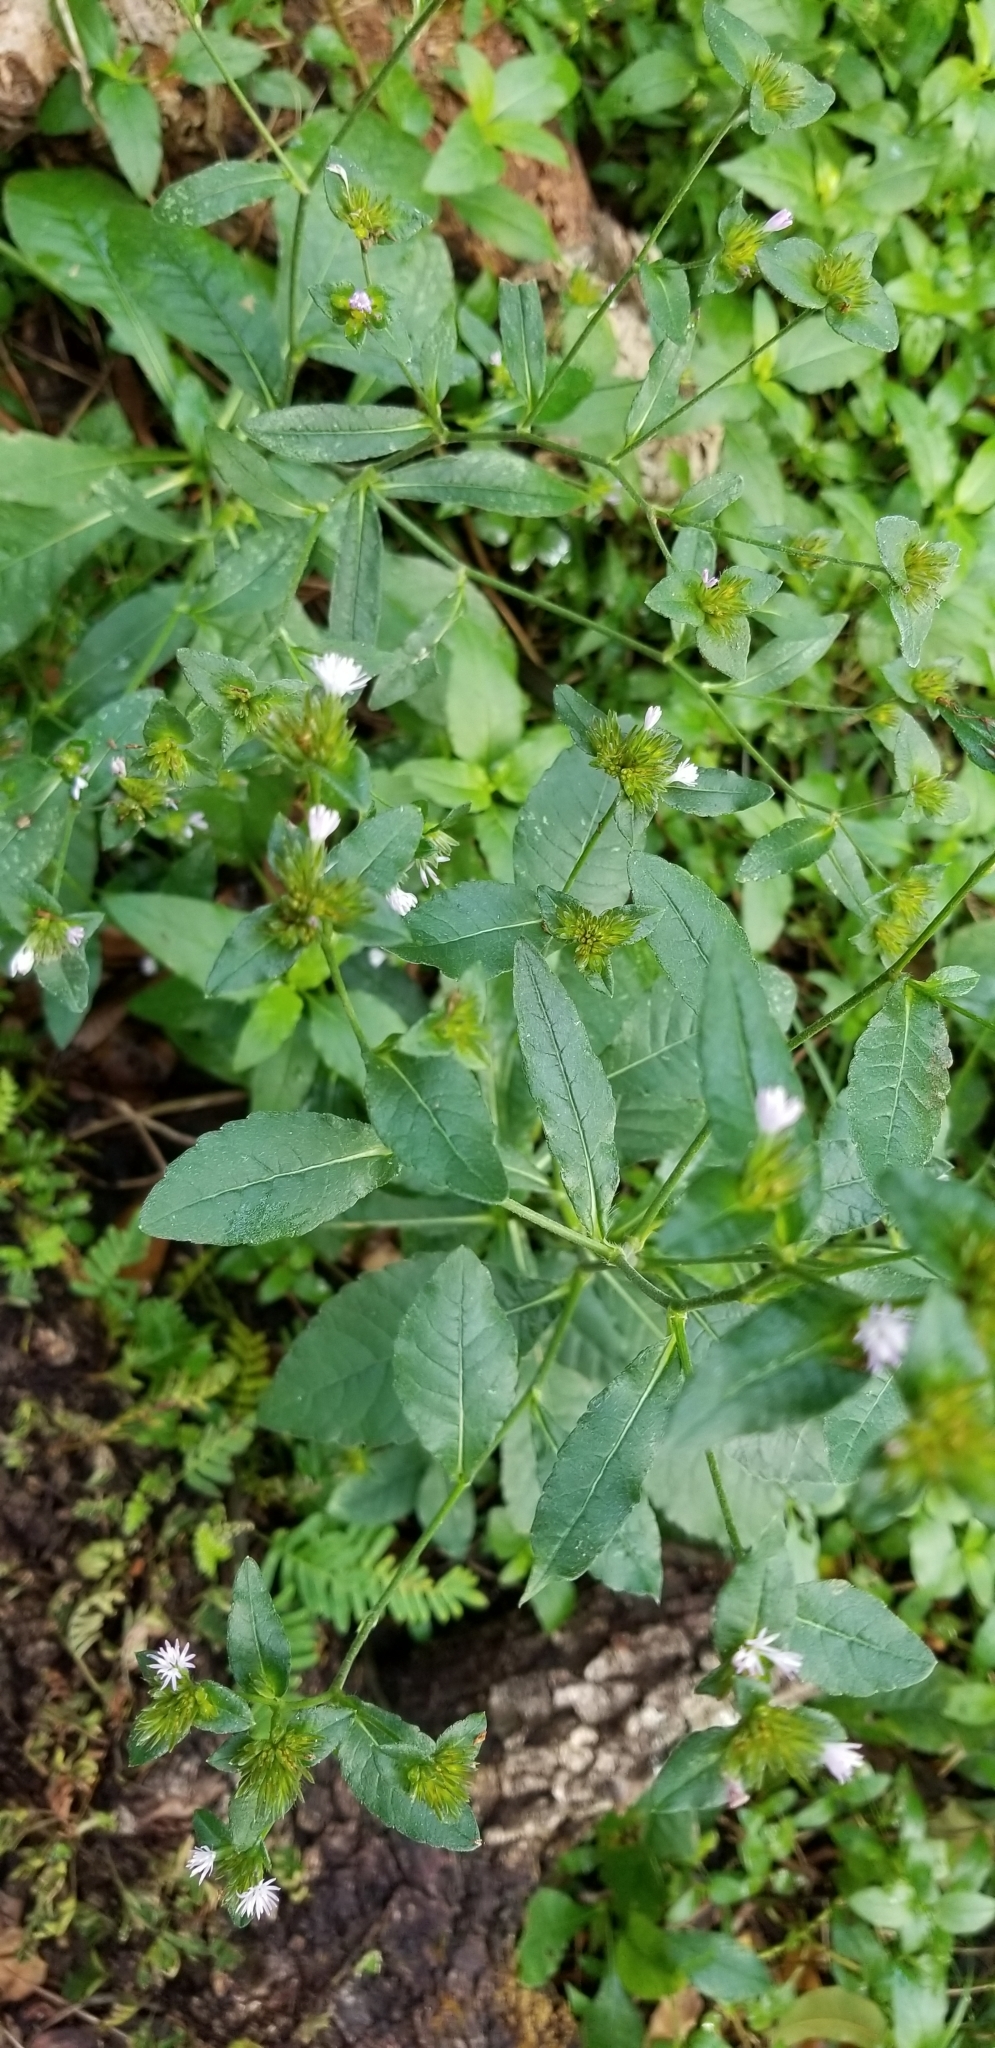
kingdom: Plantae
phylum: Tracheophyta
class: Magnoliopsida
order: Asterales
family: Asteraceae
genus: Elephantopus
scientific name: Elephantopus carolinianus
